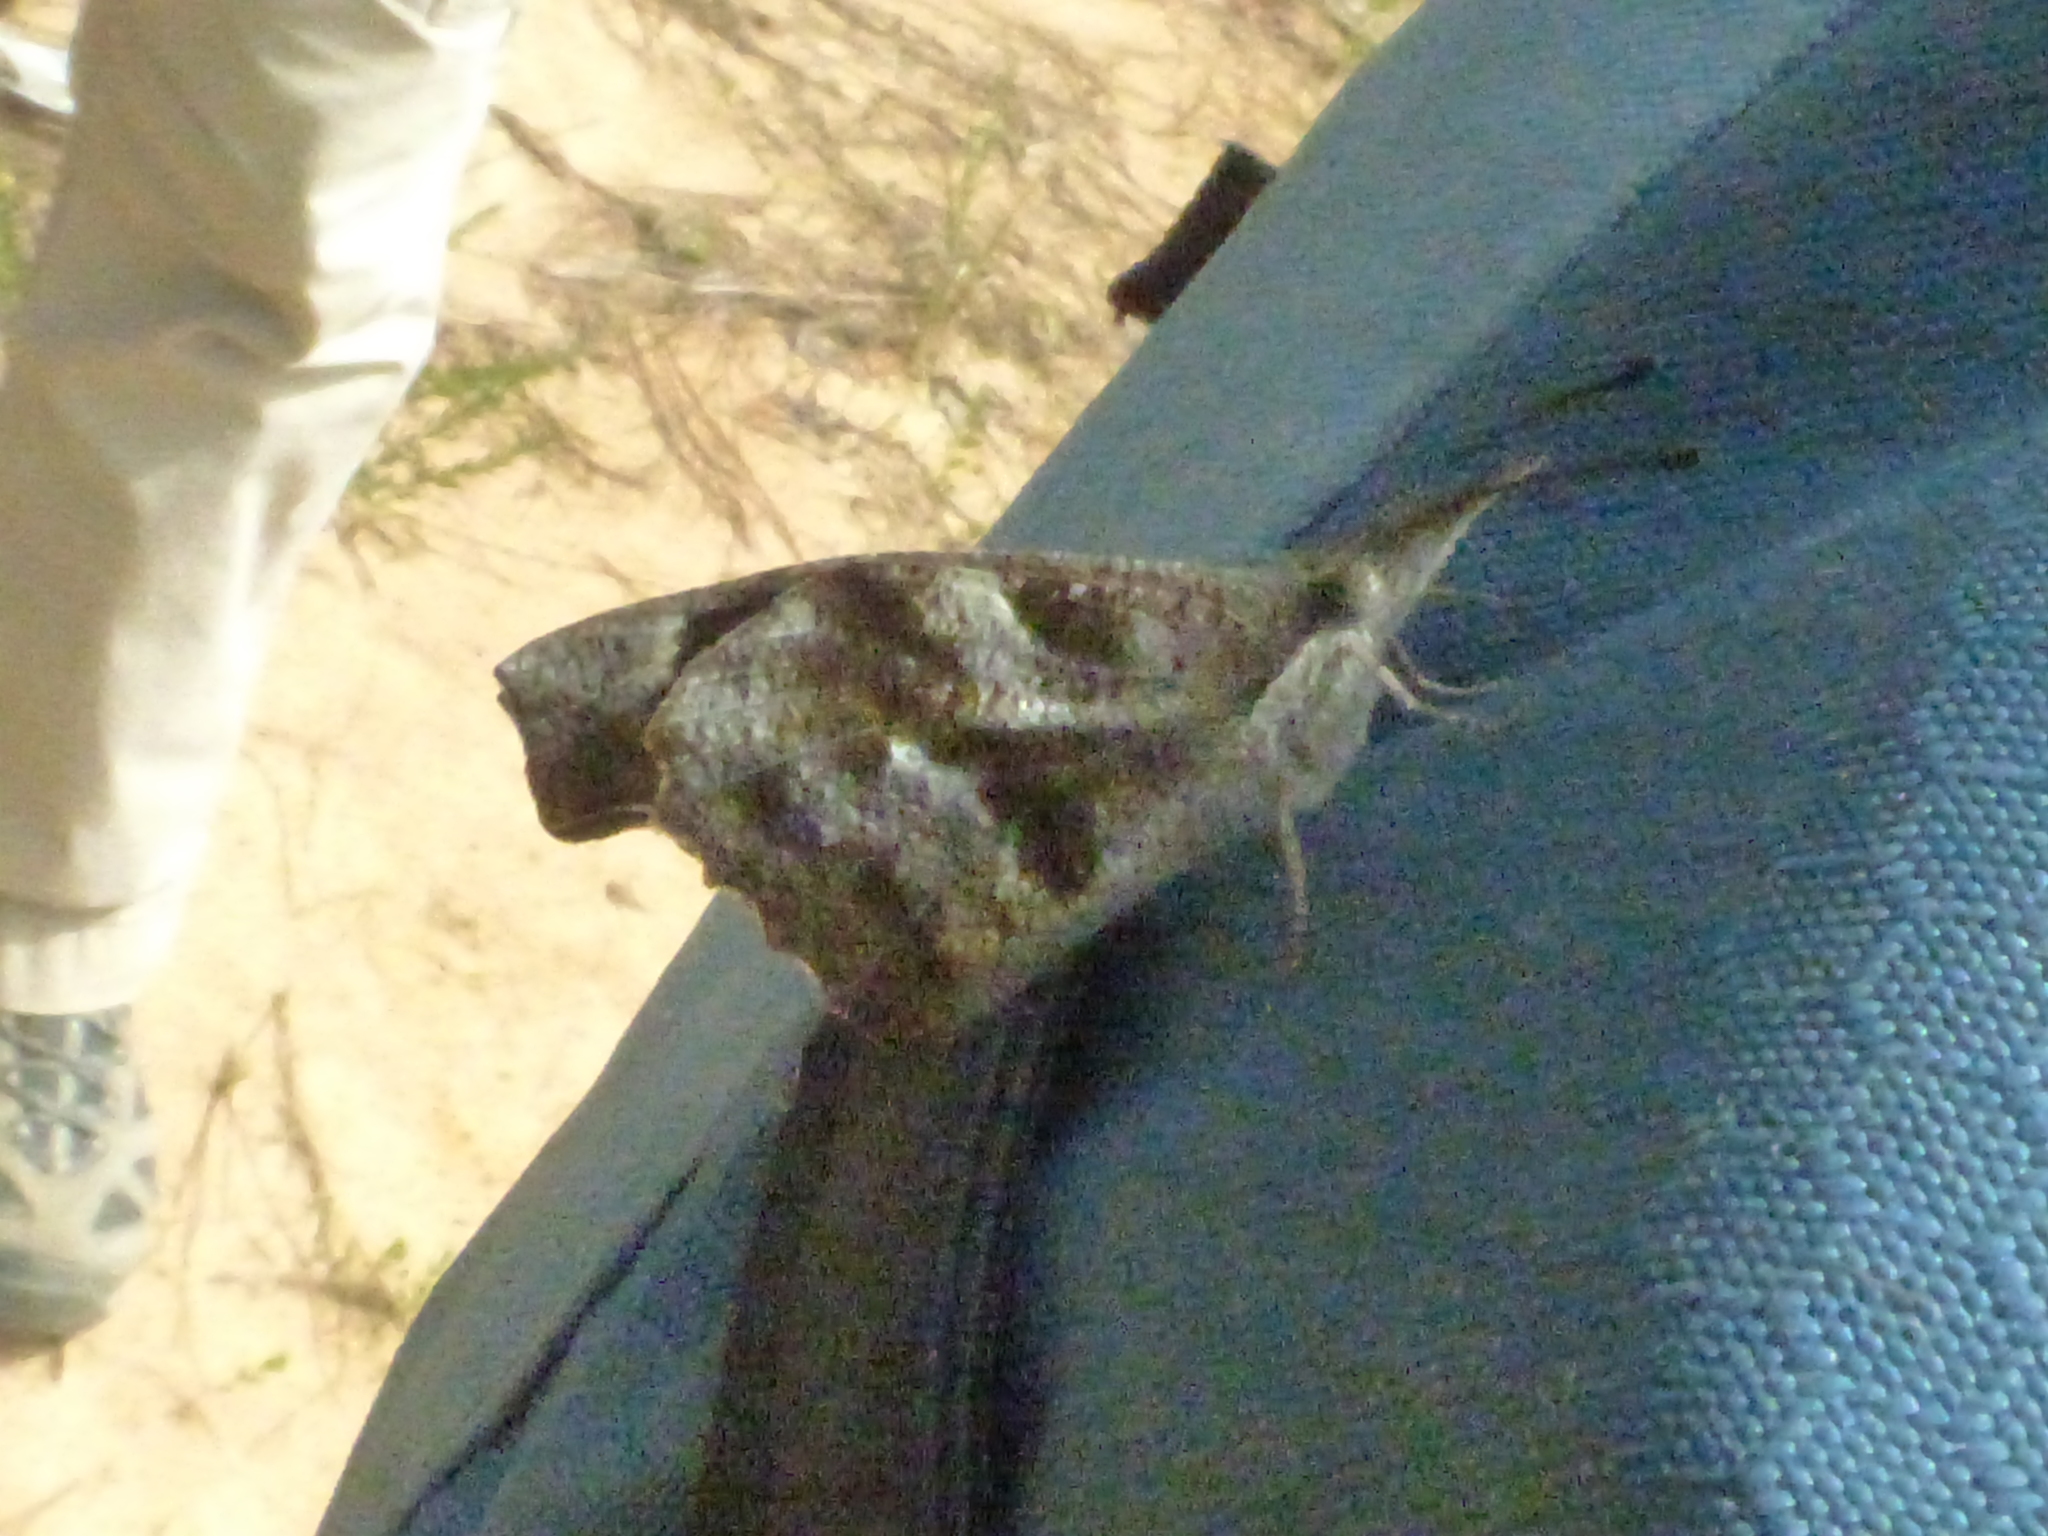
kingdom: Animalia
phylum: Arthropoda
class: Insecta
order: Lepidoptera
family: Nymphalidae
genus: Libytheana
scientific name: Libytheana carinenta
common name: American snout
